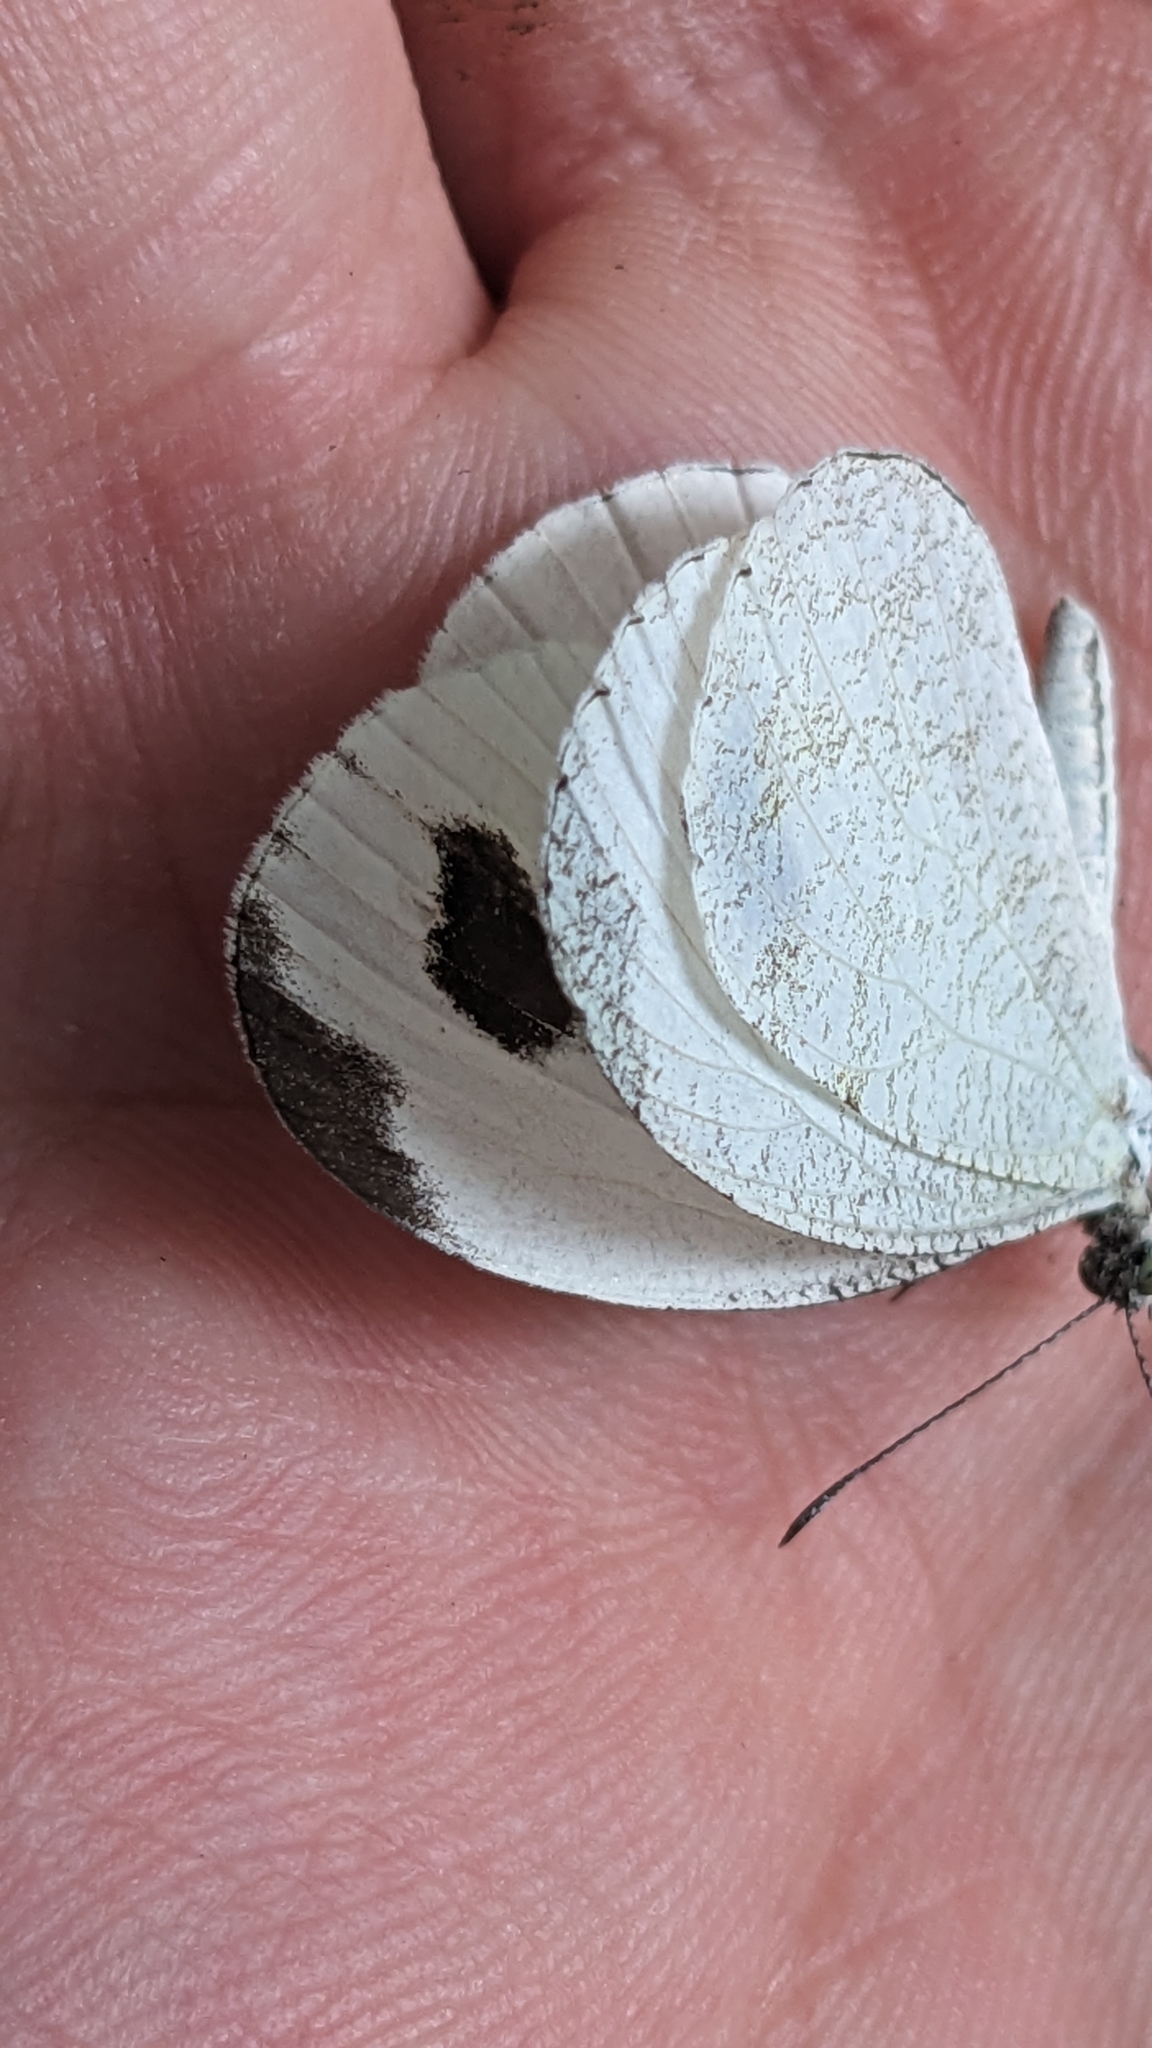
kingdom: Animalia
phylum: Arthropoda
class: Insecta
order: Lepidoptera
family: Pieridae
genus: Leptosia
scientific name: Leptosia nina
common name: Psyche
